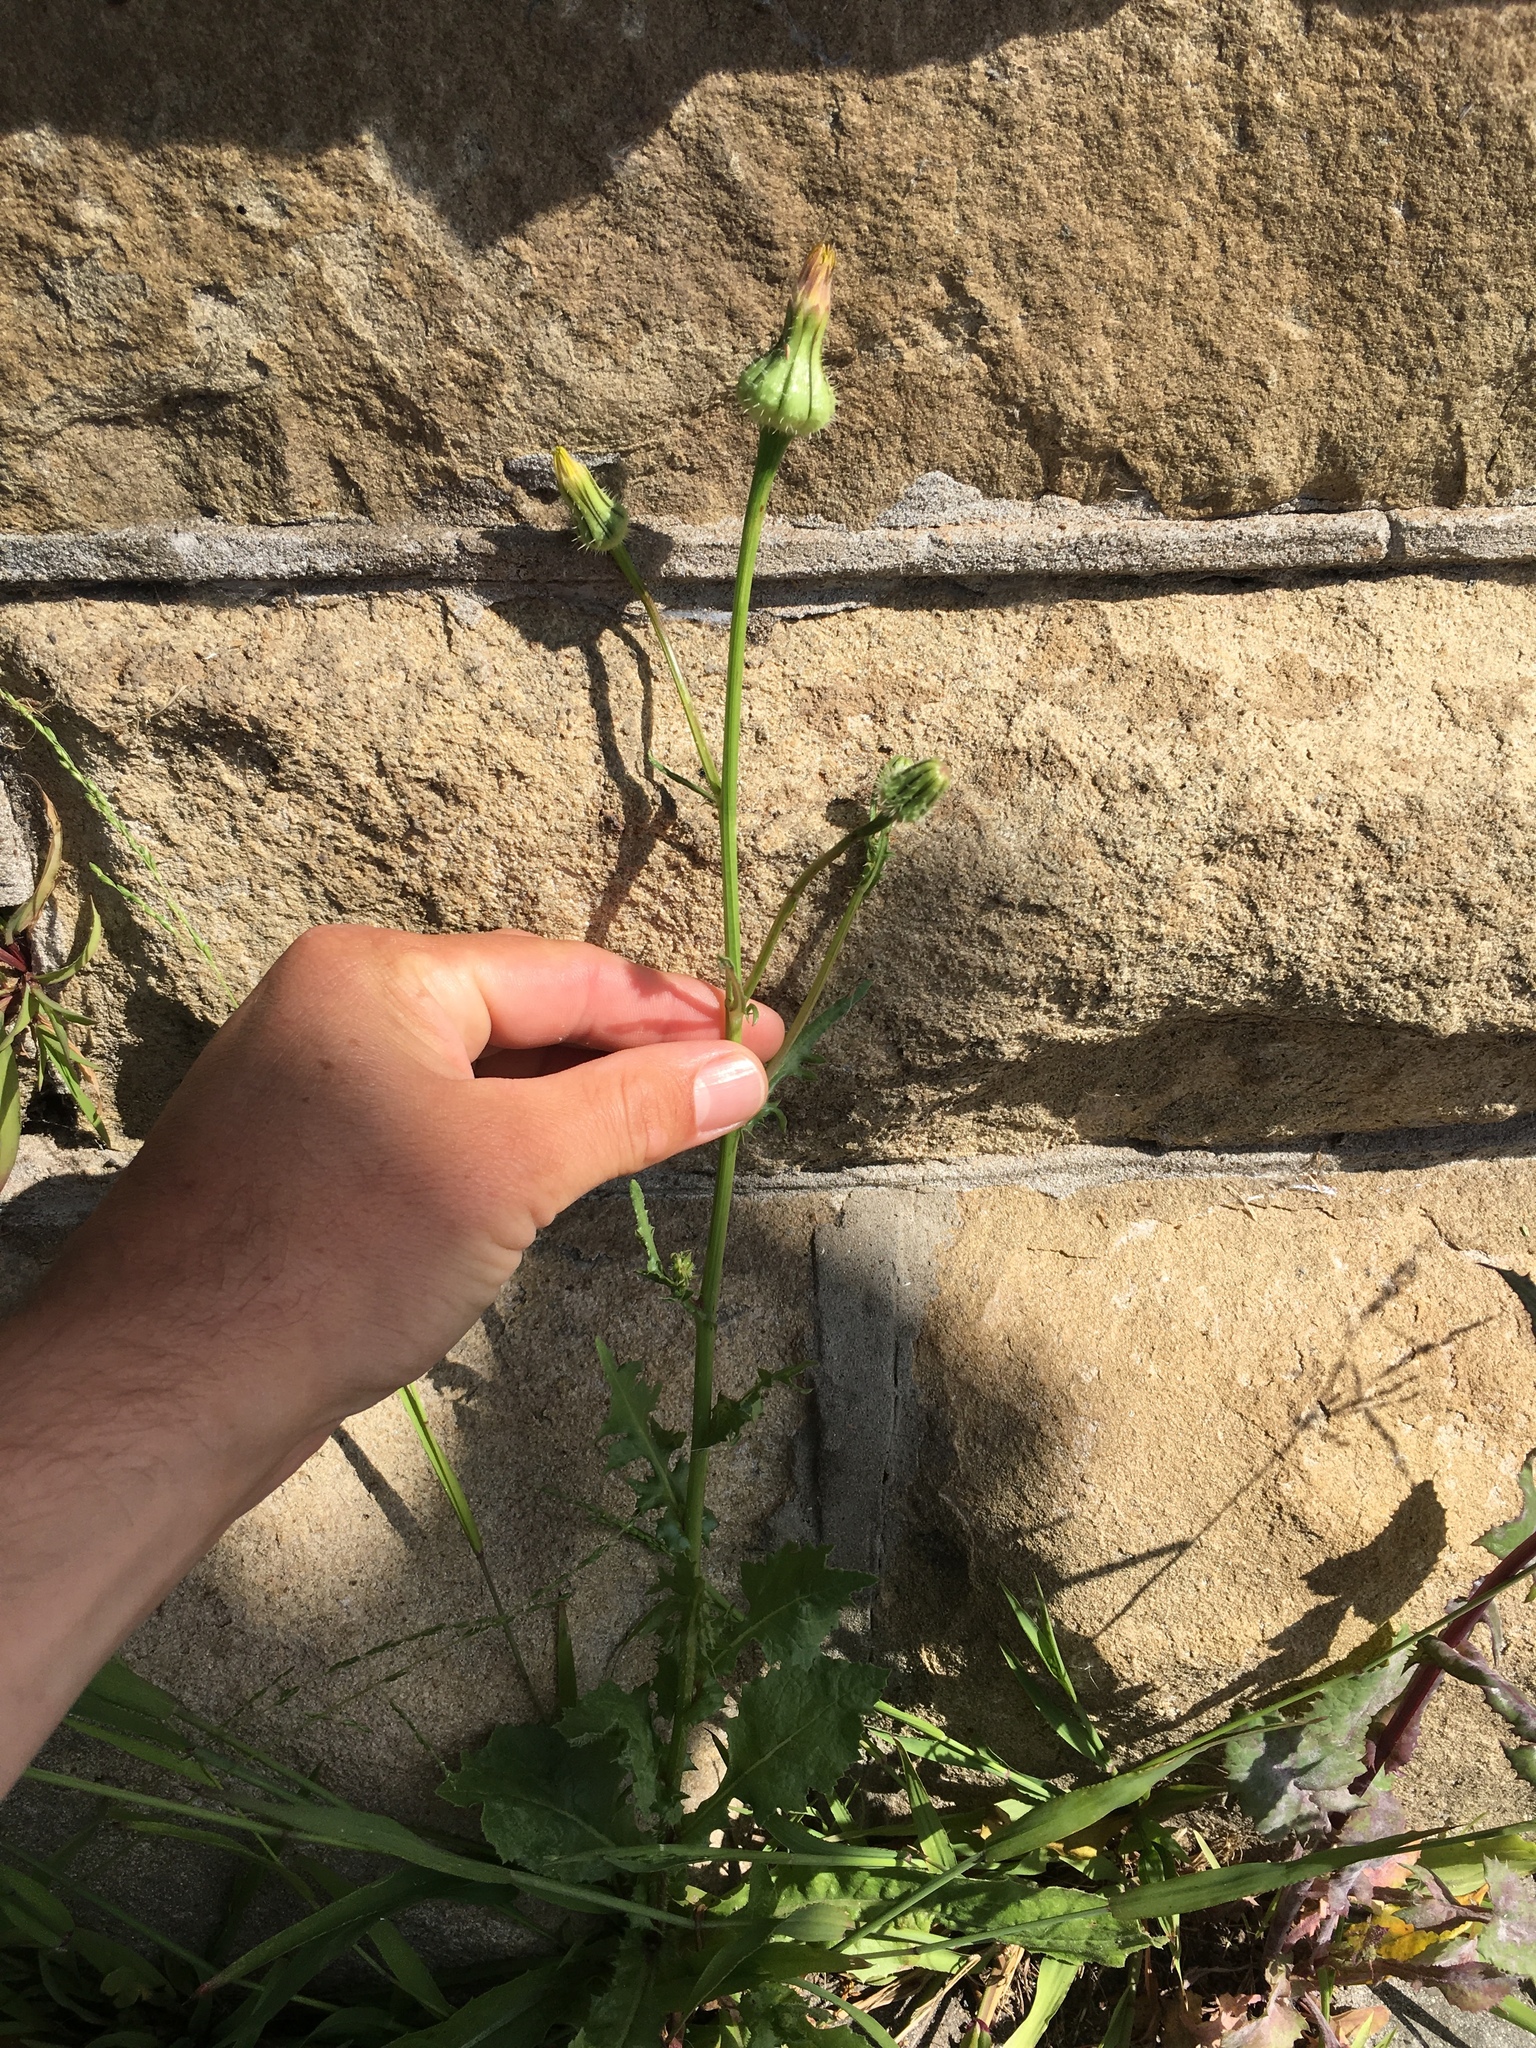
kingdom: Plantae
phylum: Tracheophyta
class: Magnoliopsida
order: Asterales
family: Asteraceae
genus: Urospermum
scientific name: Urospermum picroides
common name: False hawkbit
